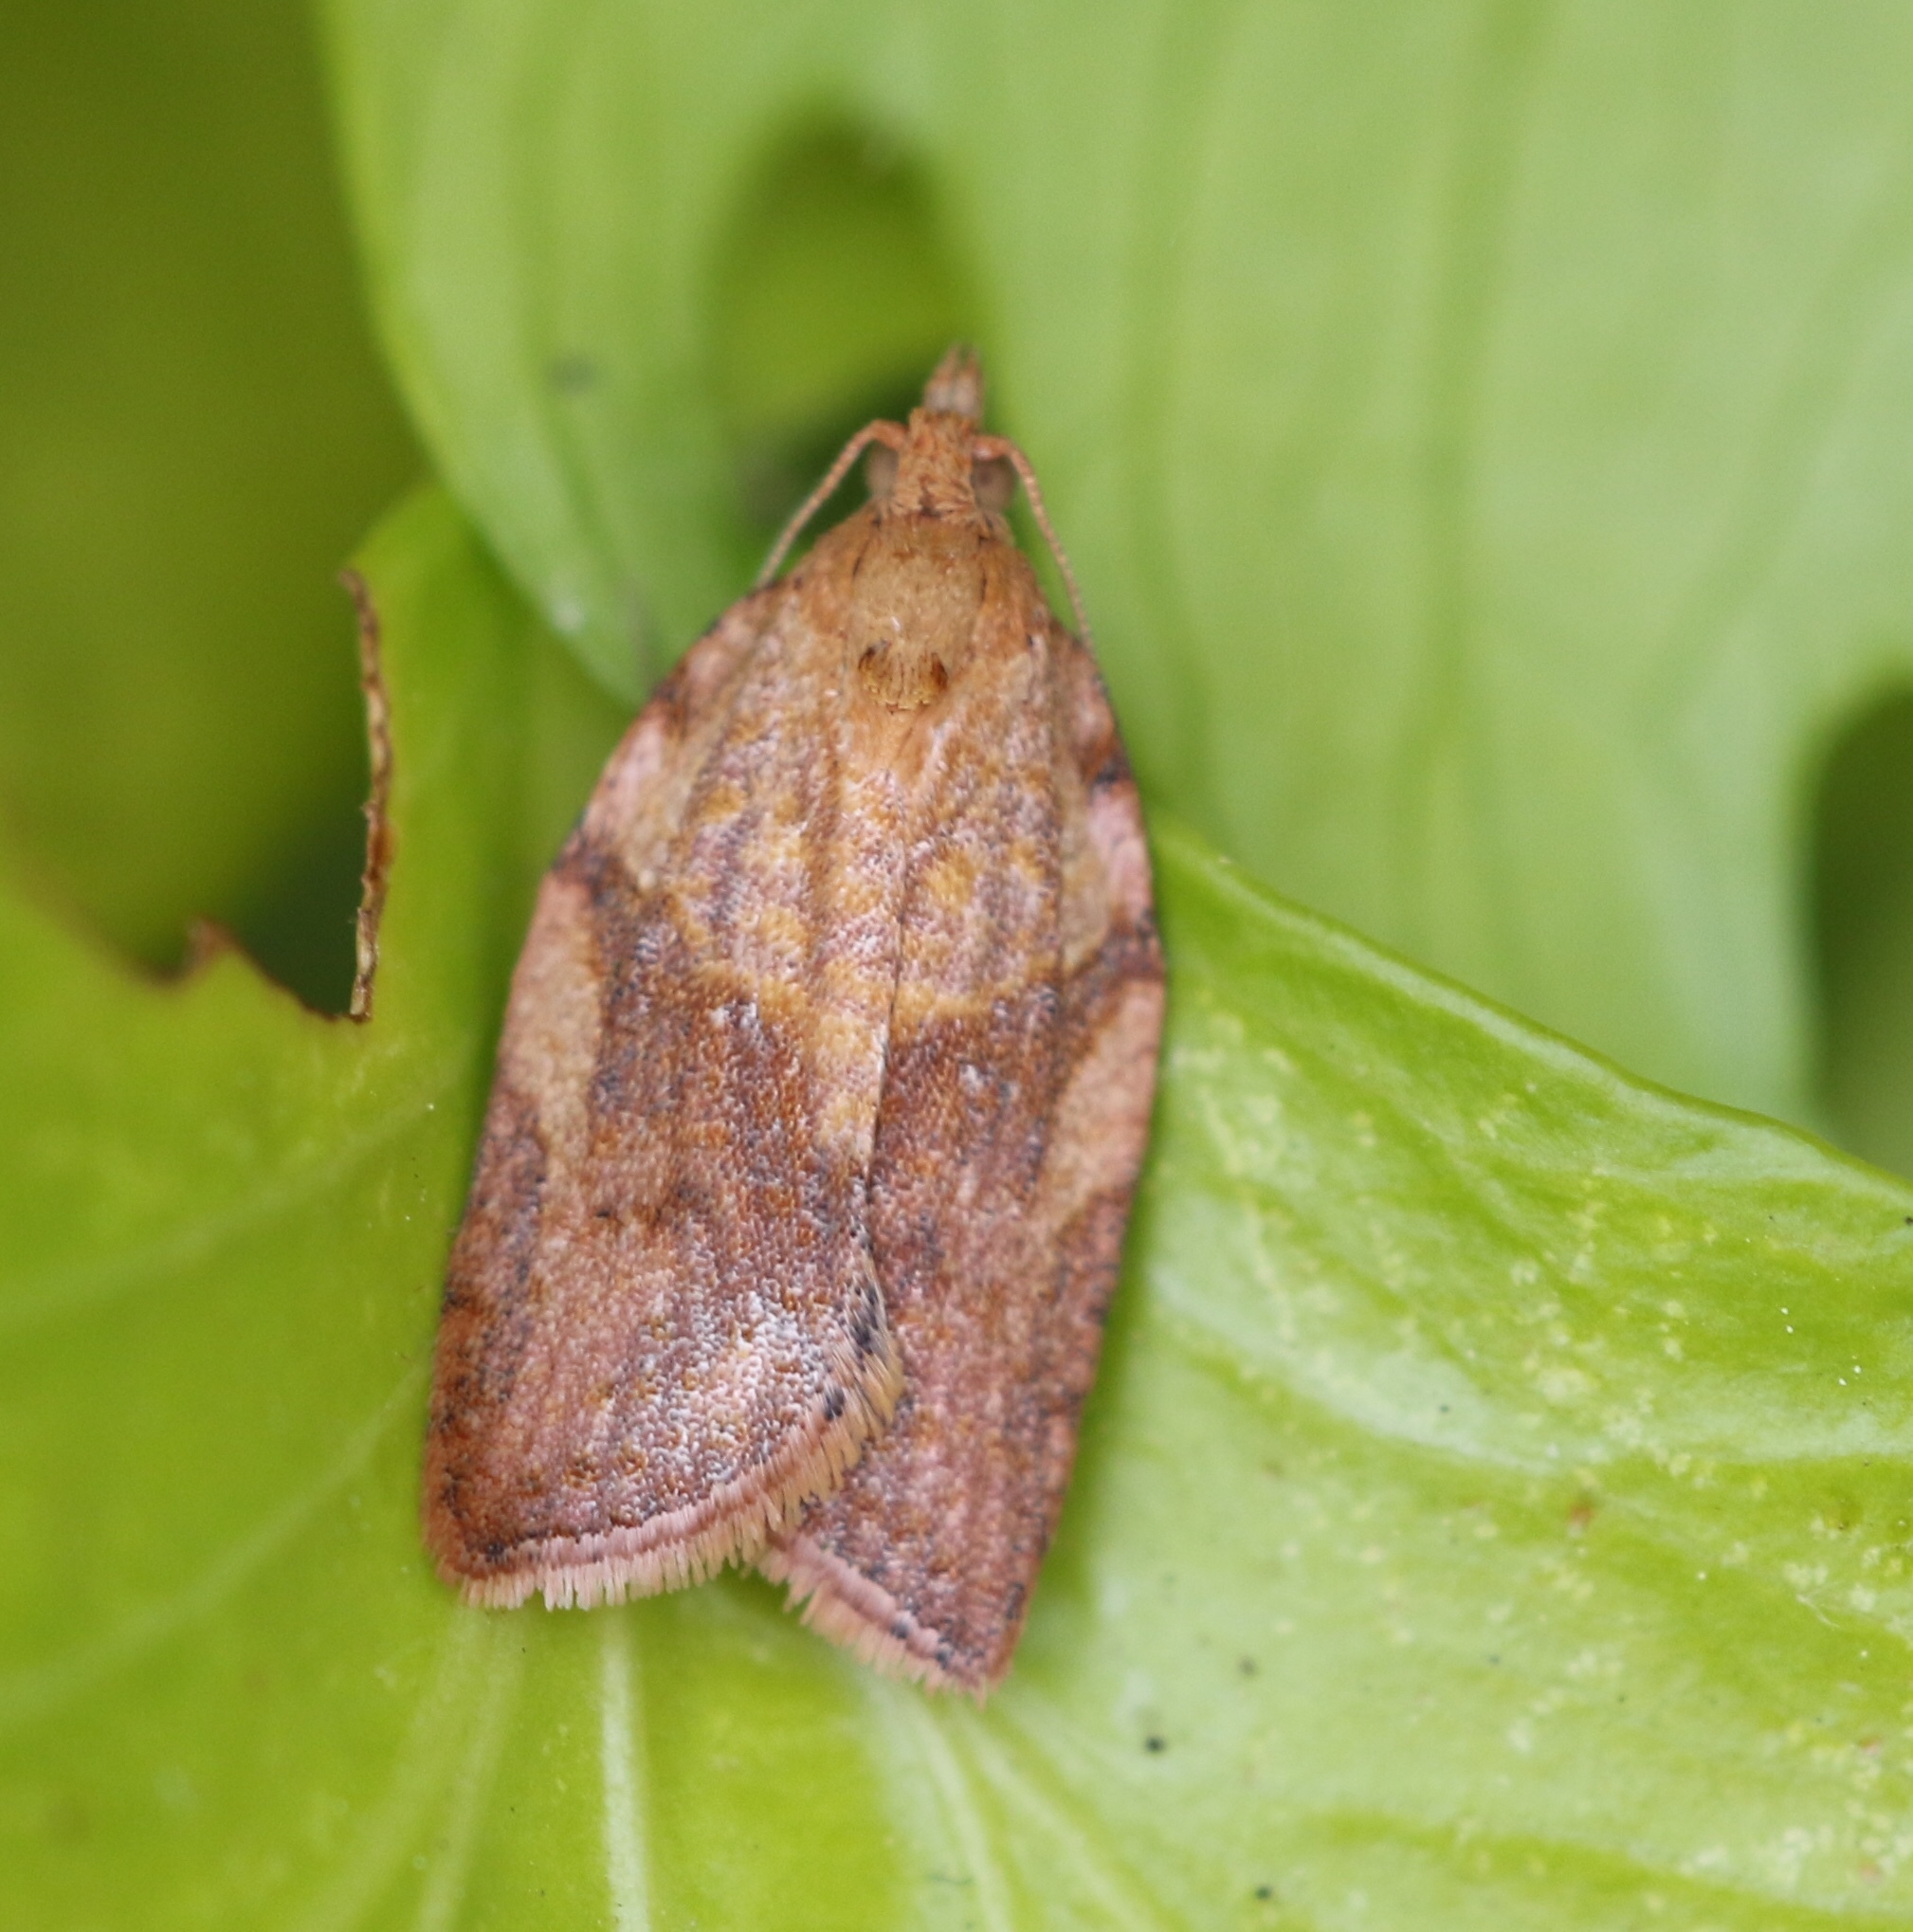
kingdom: Animalia
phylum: Arthropoda
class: Insecta
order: Lepidoptera
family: Tortricidae
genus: Epiphyas
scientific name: Epiphyas postvittana
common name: Light brown apple moth
